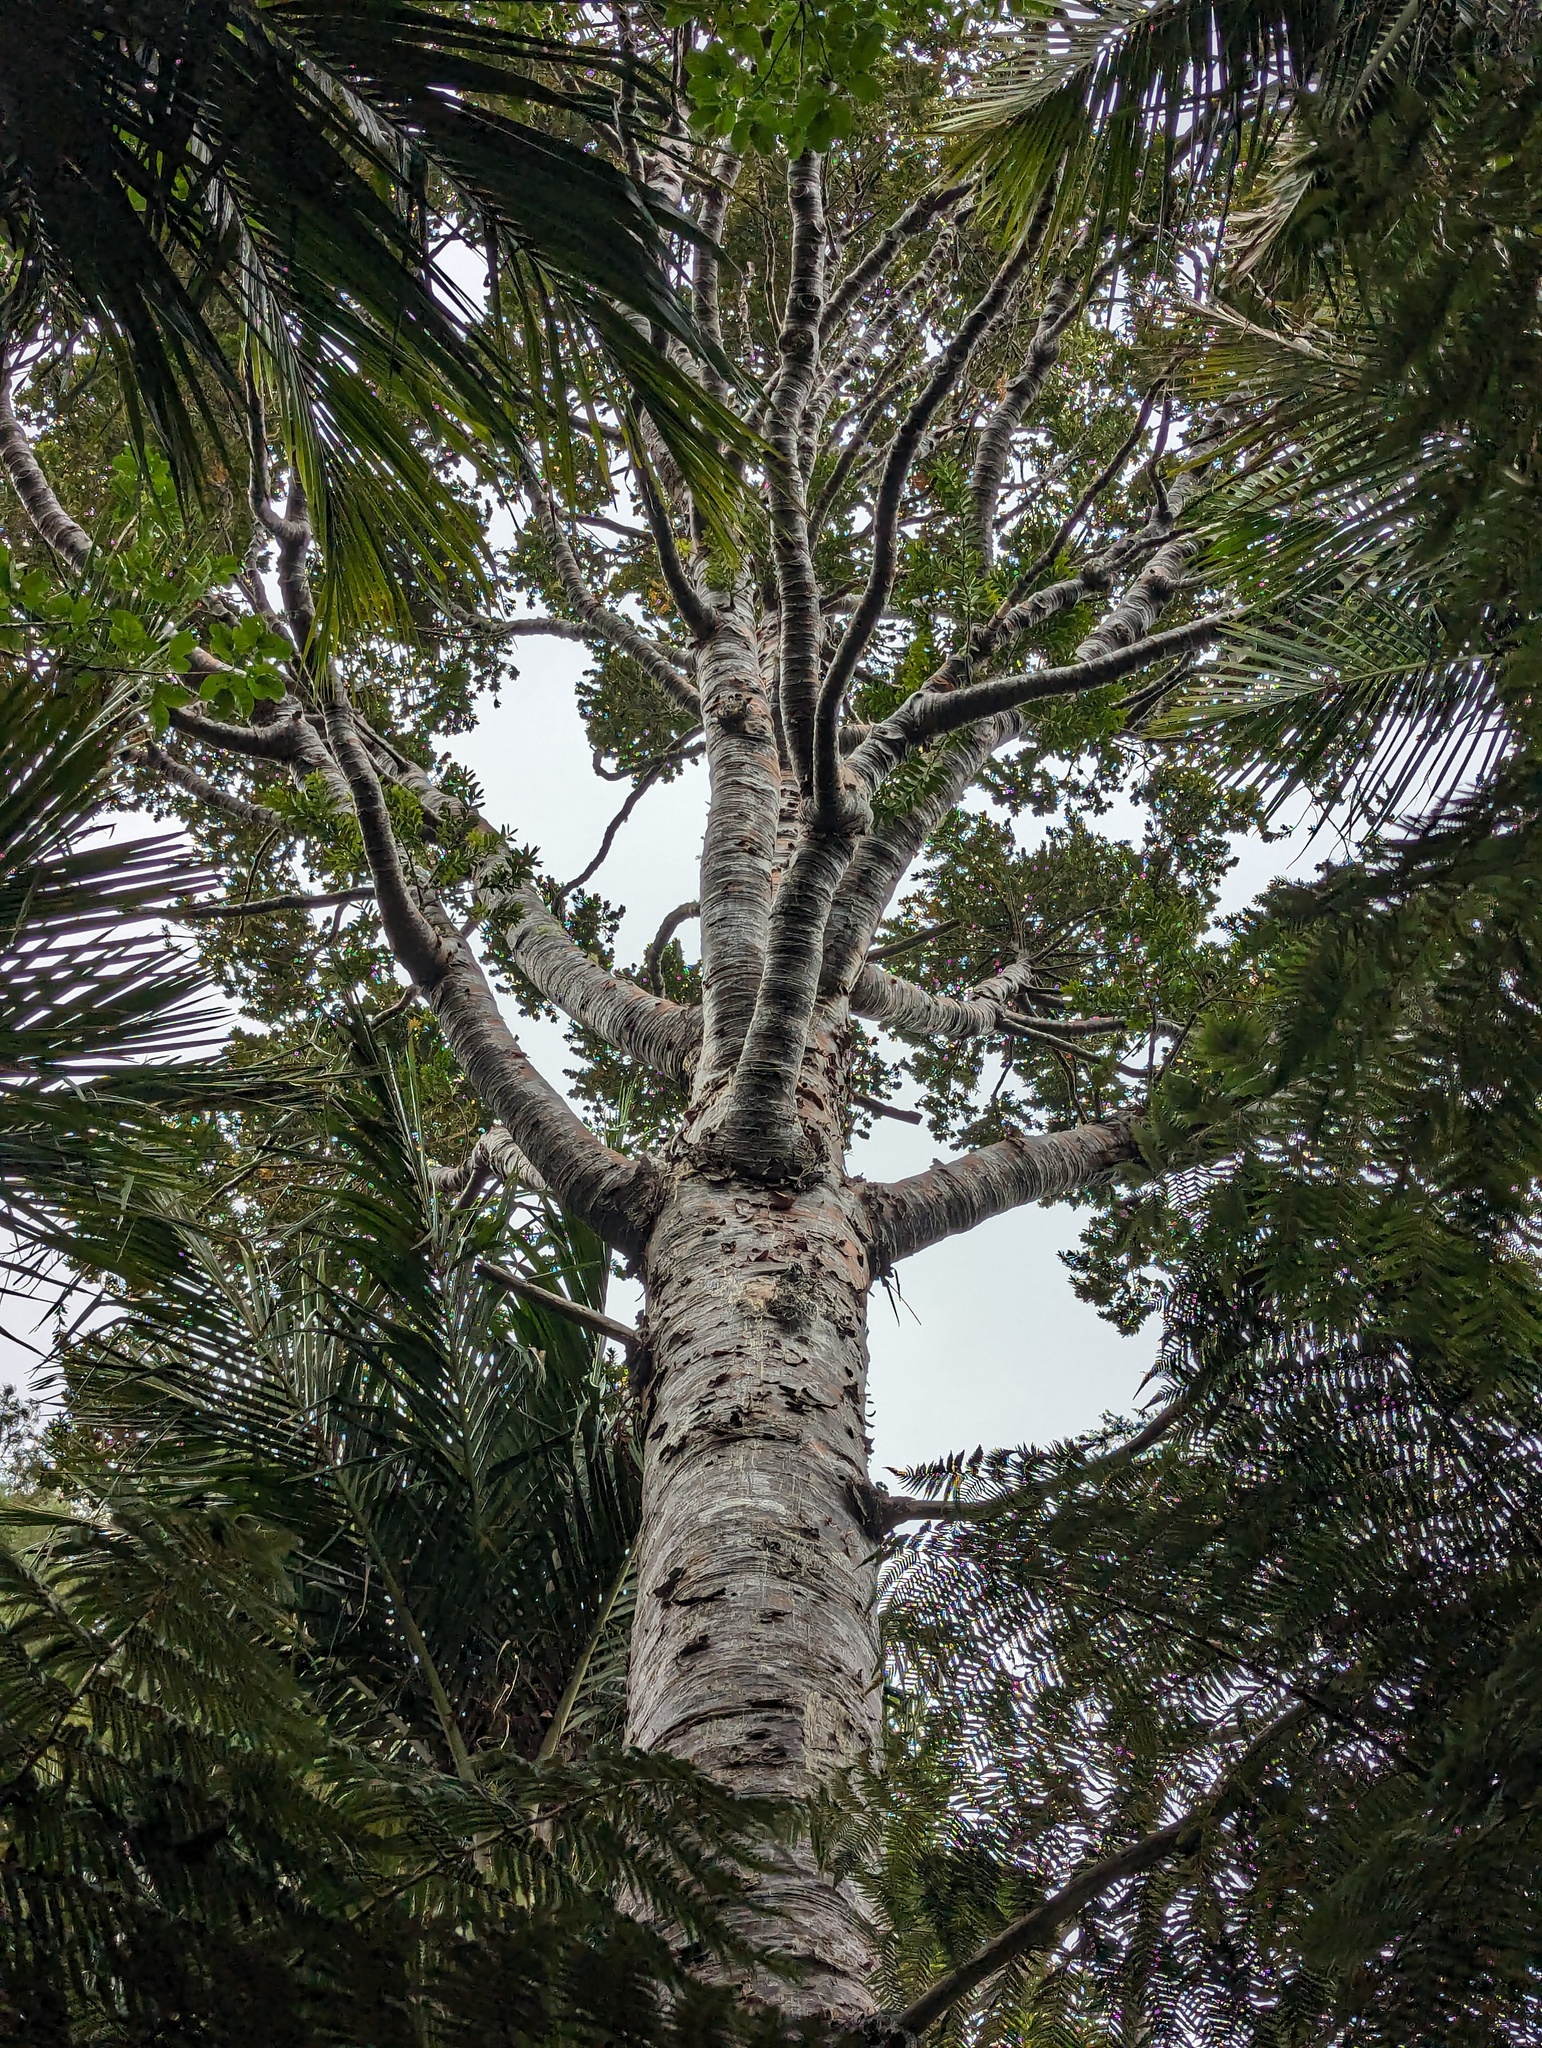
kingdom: Plantae
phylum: Tracheophyta
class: Pinopsida
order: Pinales
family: Araucariaceae
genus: Agathis
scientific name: Agathis australis
